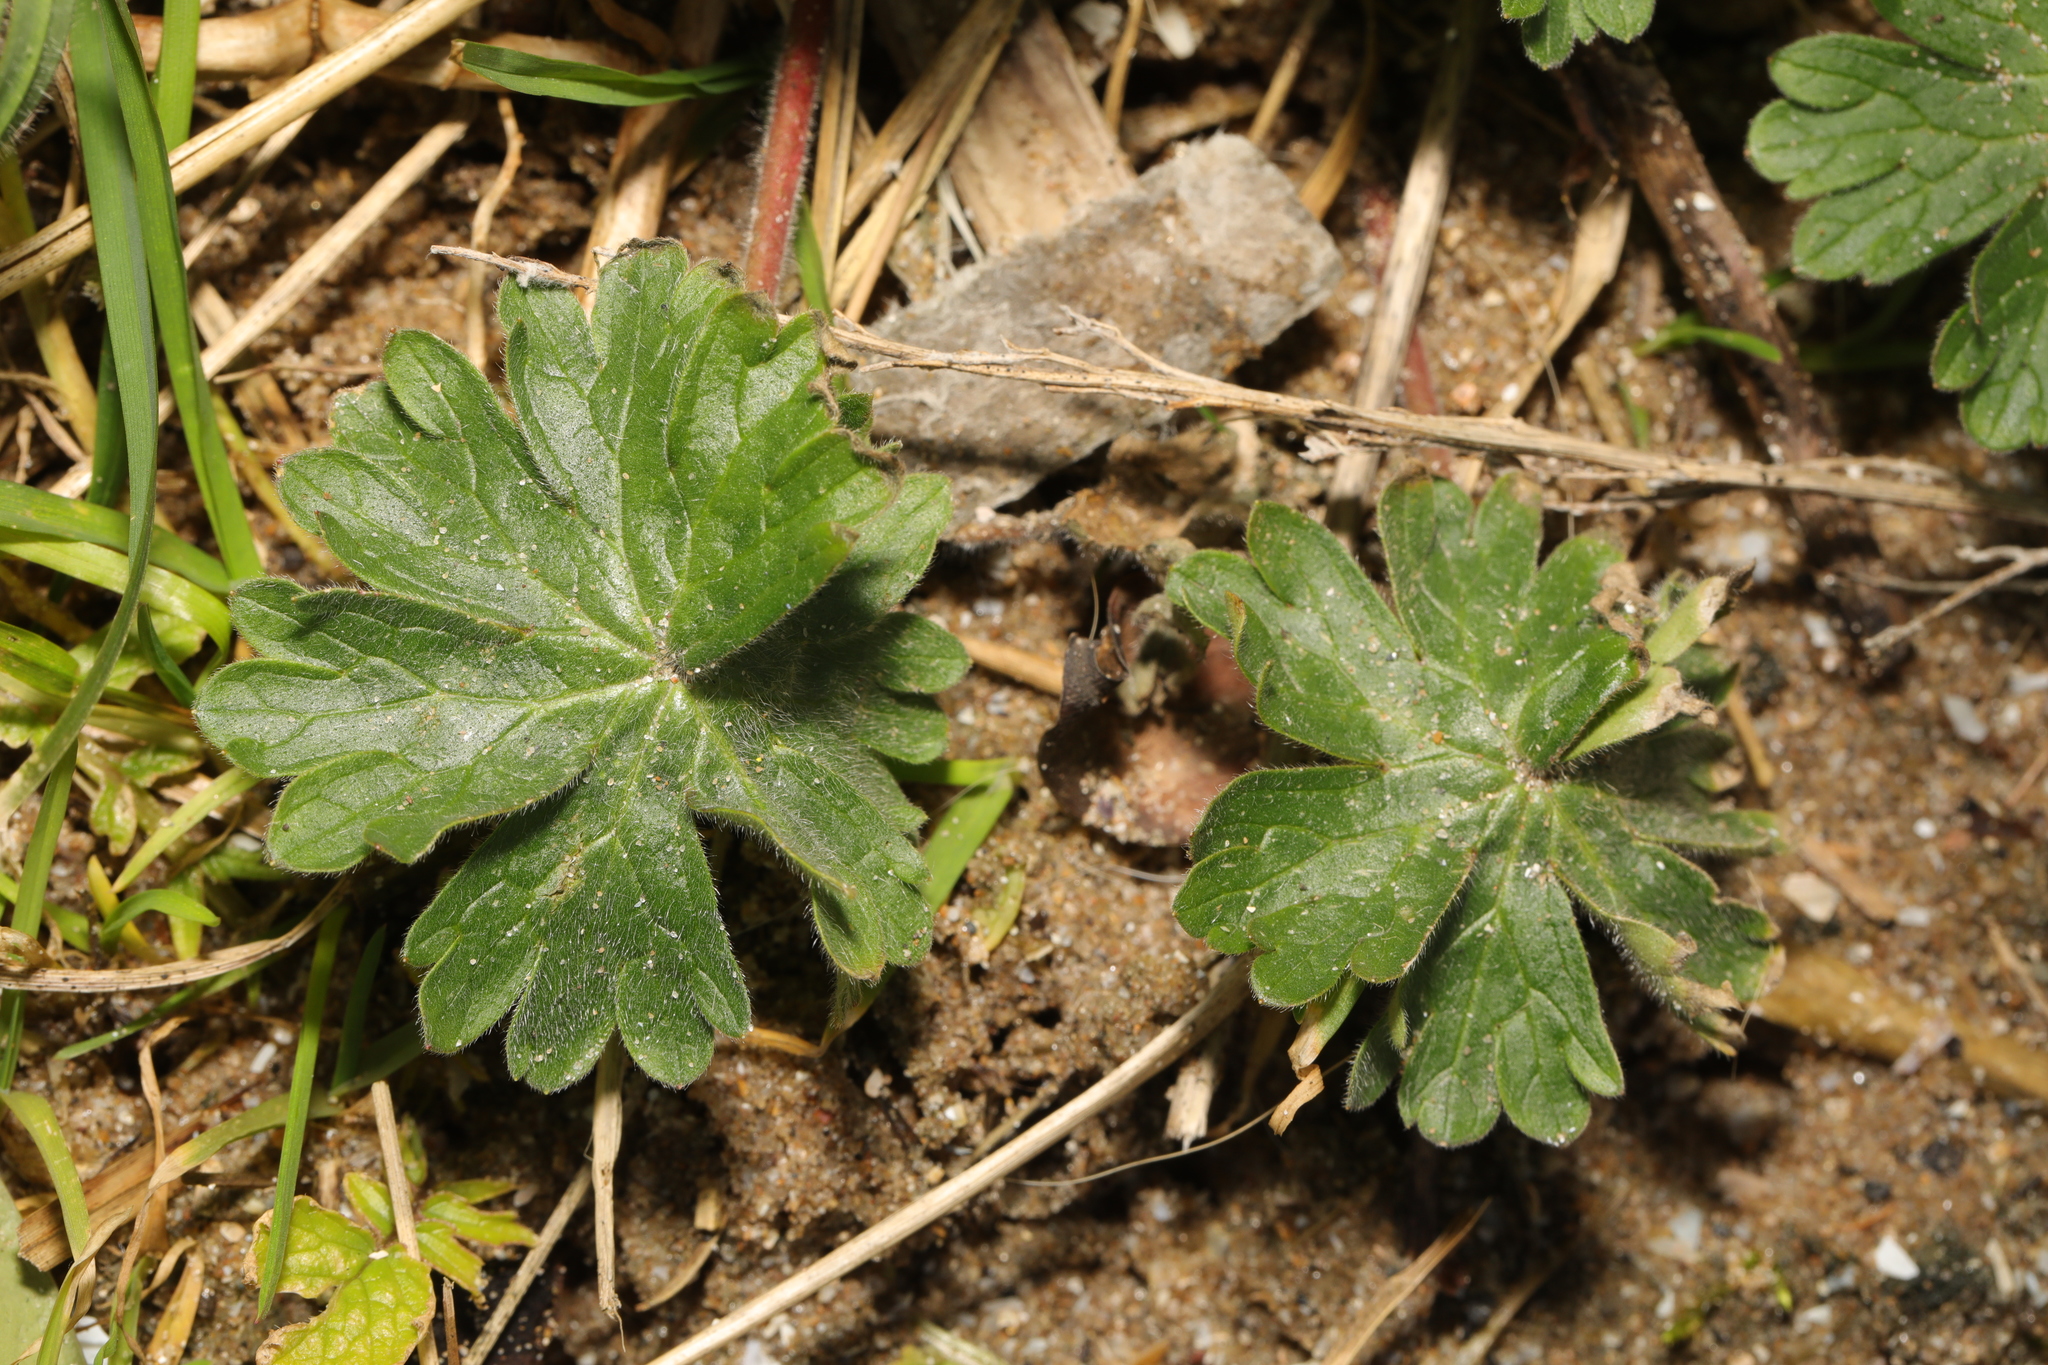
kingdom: Plantae
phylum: Tracheophyta
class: Magnoliopsida
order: Geraniales
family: Geraniaceae
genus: Geranium
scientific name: Geranium molle
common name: Dove's-foot crane's-bill
